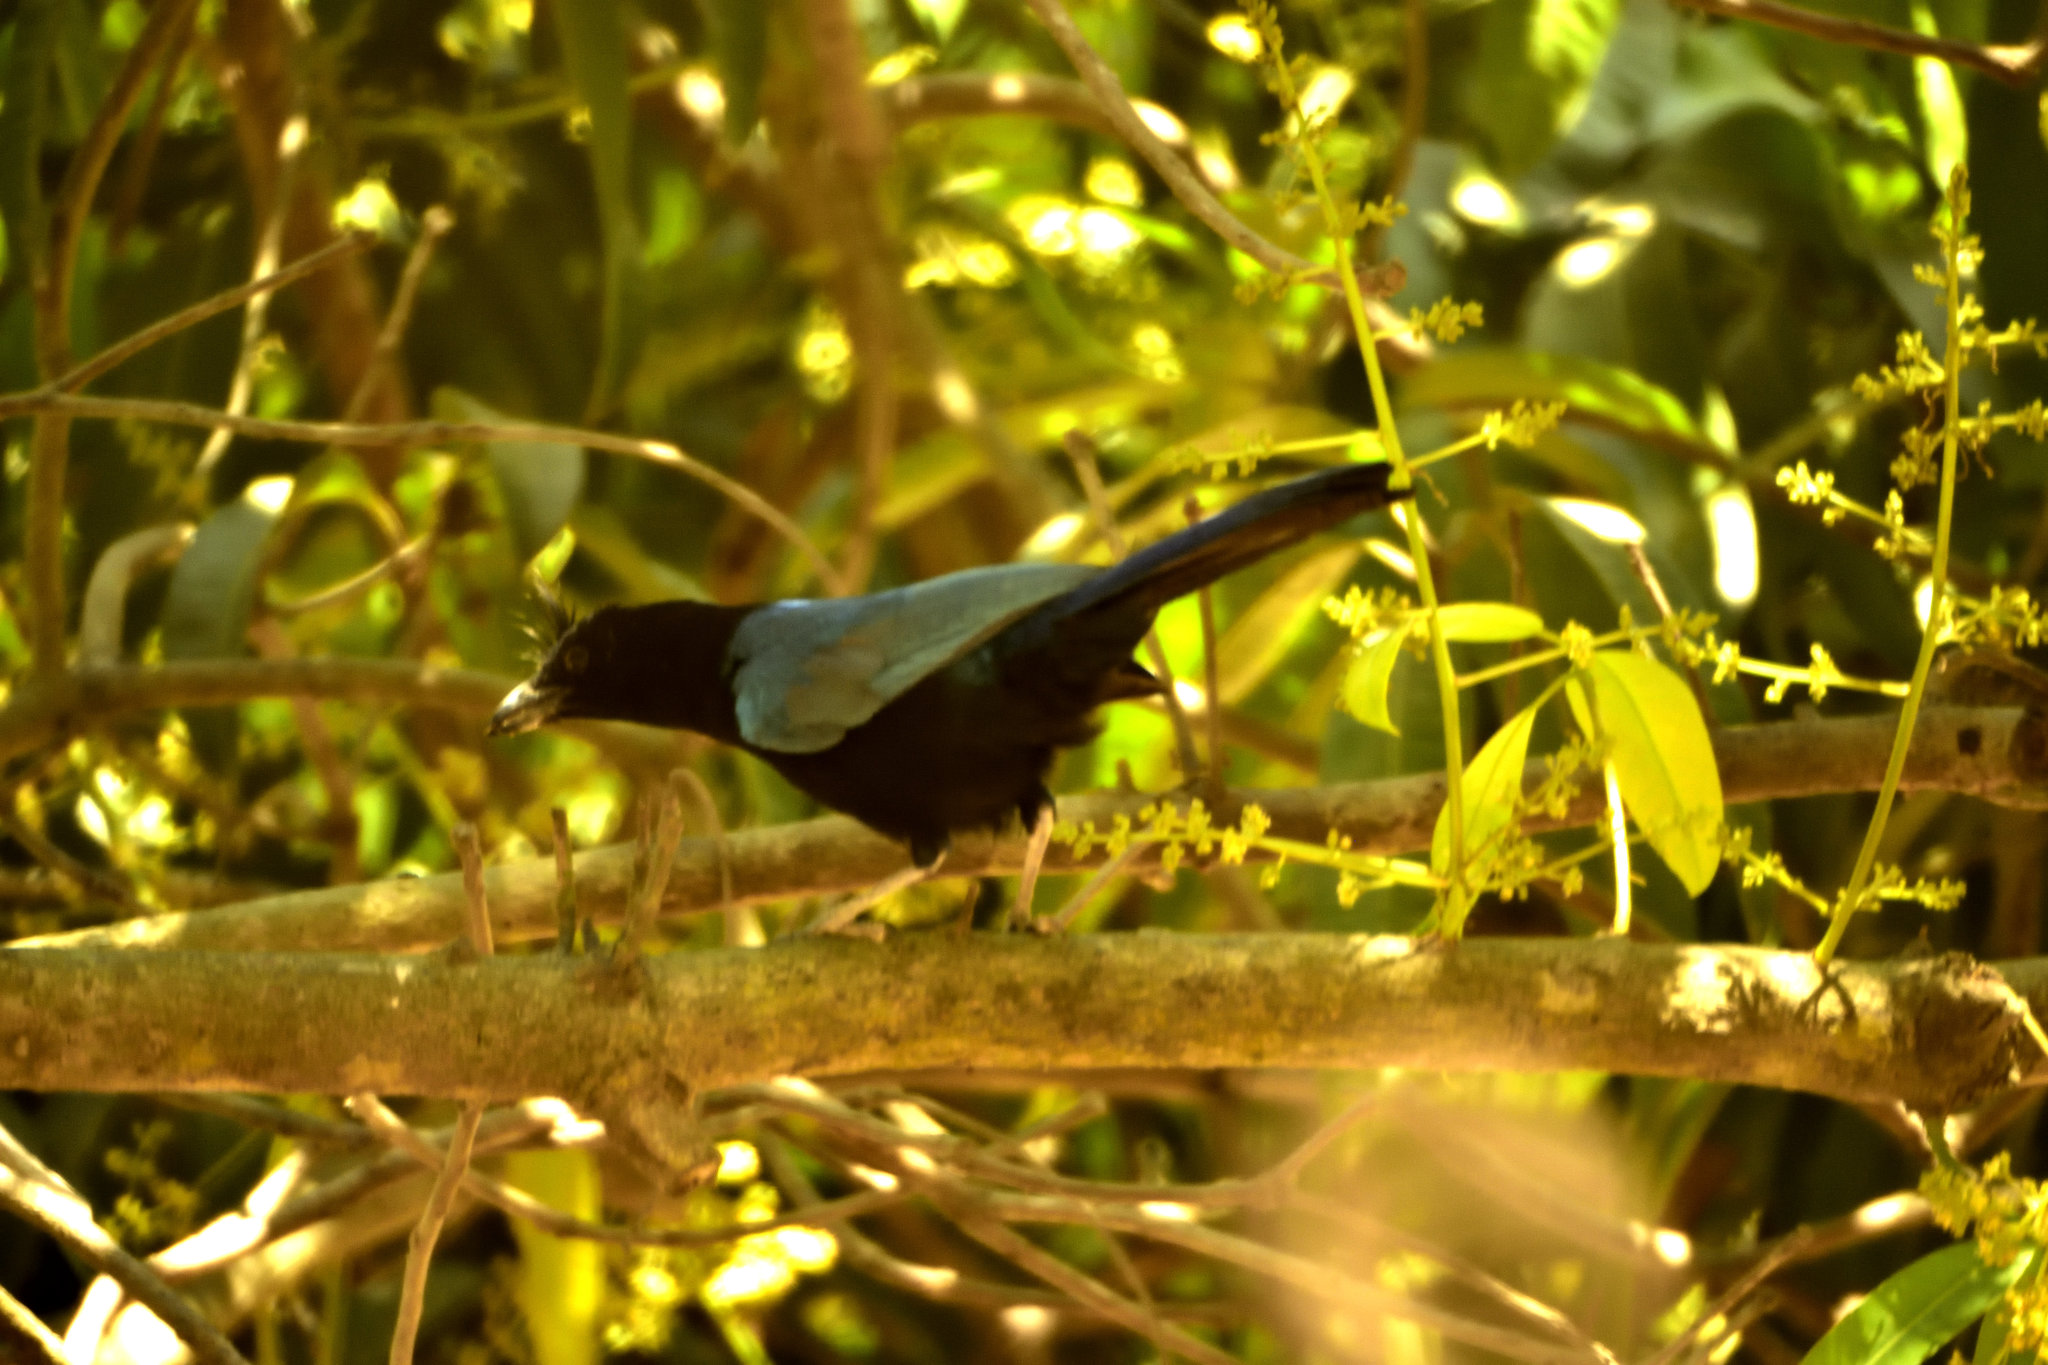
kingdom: Animalia
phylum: Chordata
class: Aves
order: Passeriformes
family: Corvidae
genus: Cyanocorax
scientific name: Cyanocorax sanblasianus
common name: San blas jay
